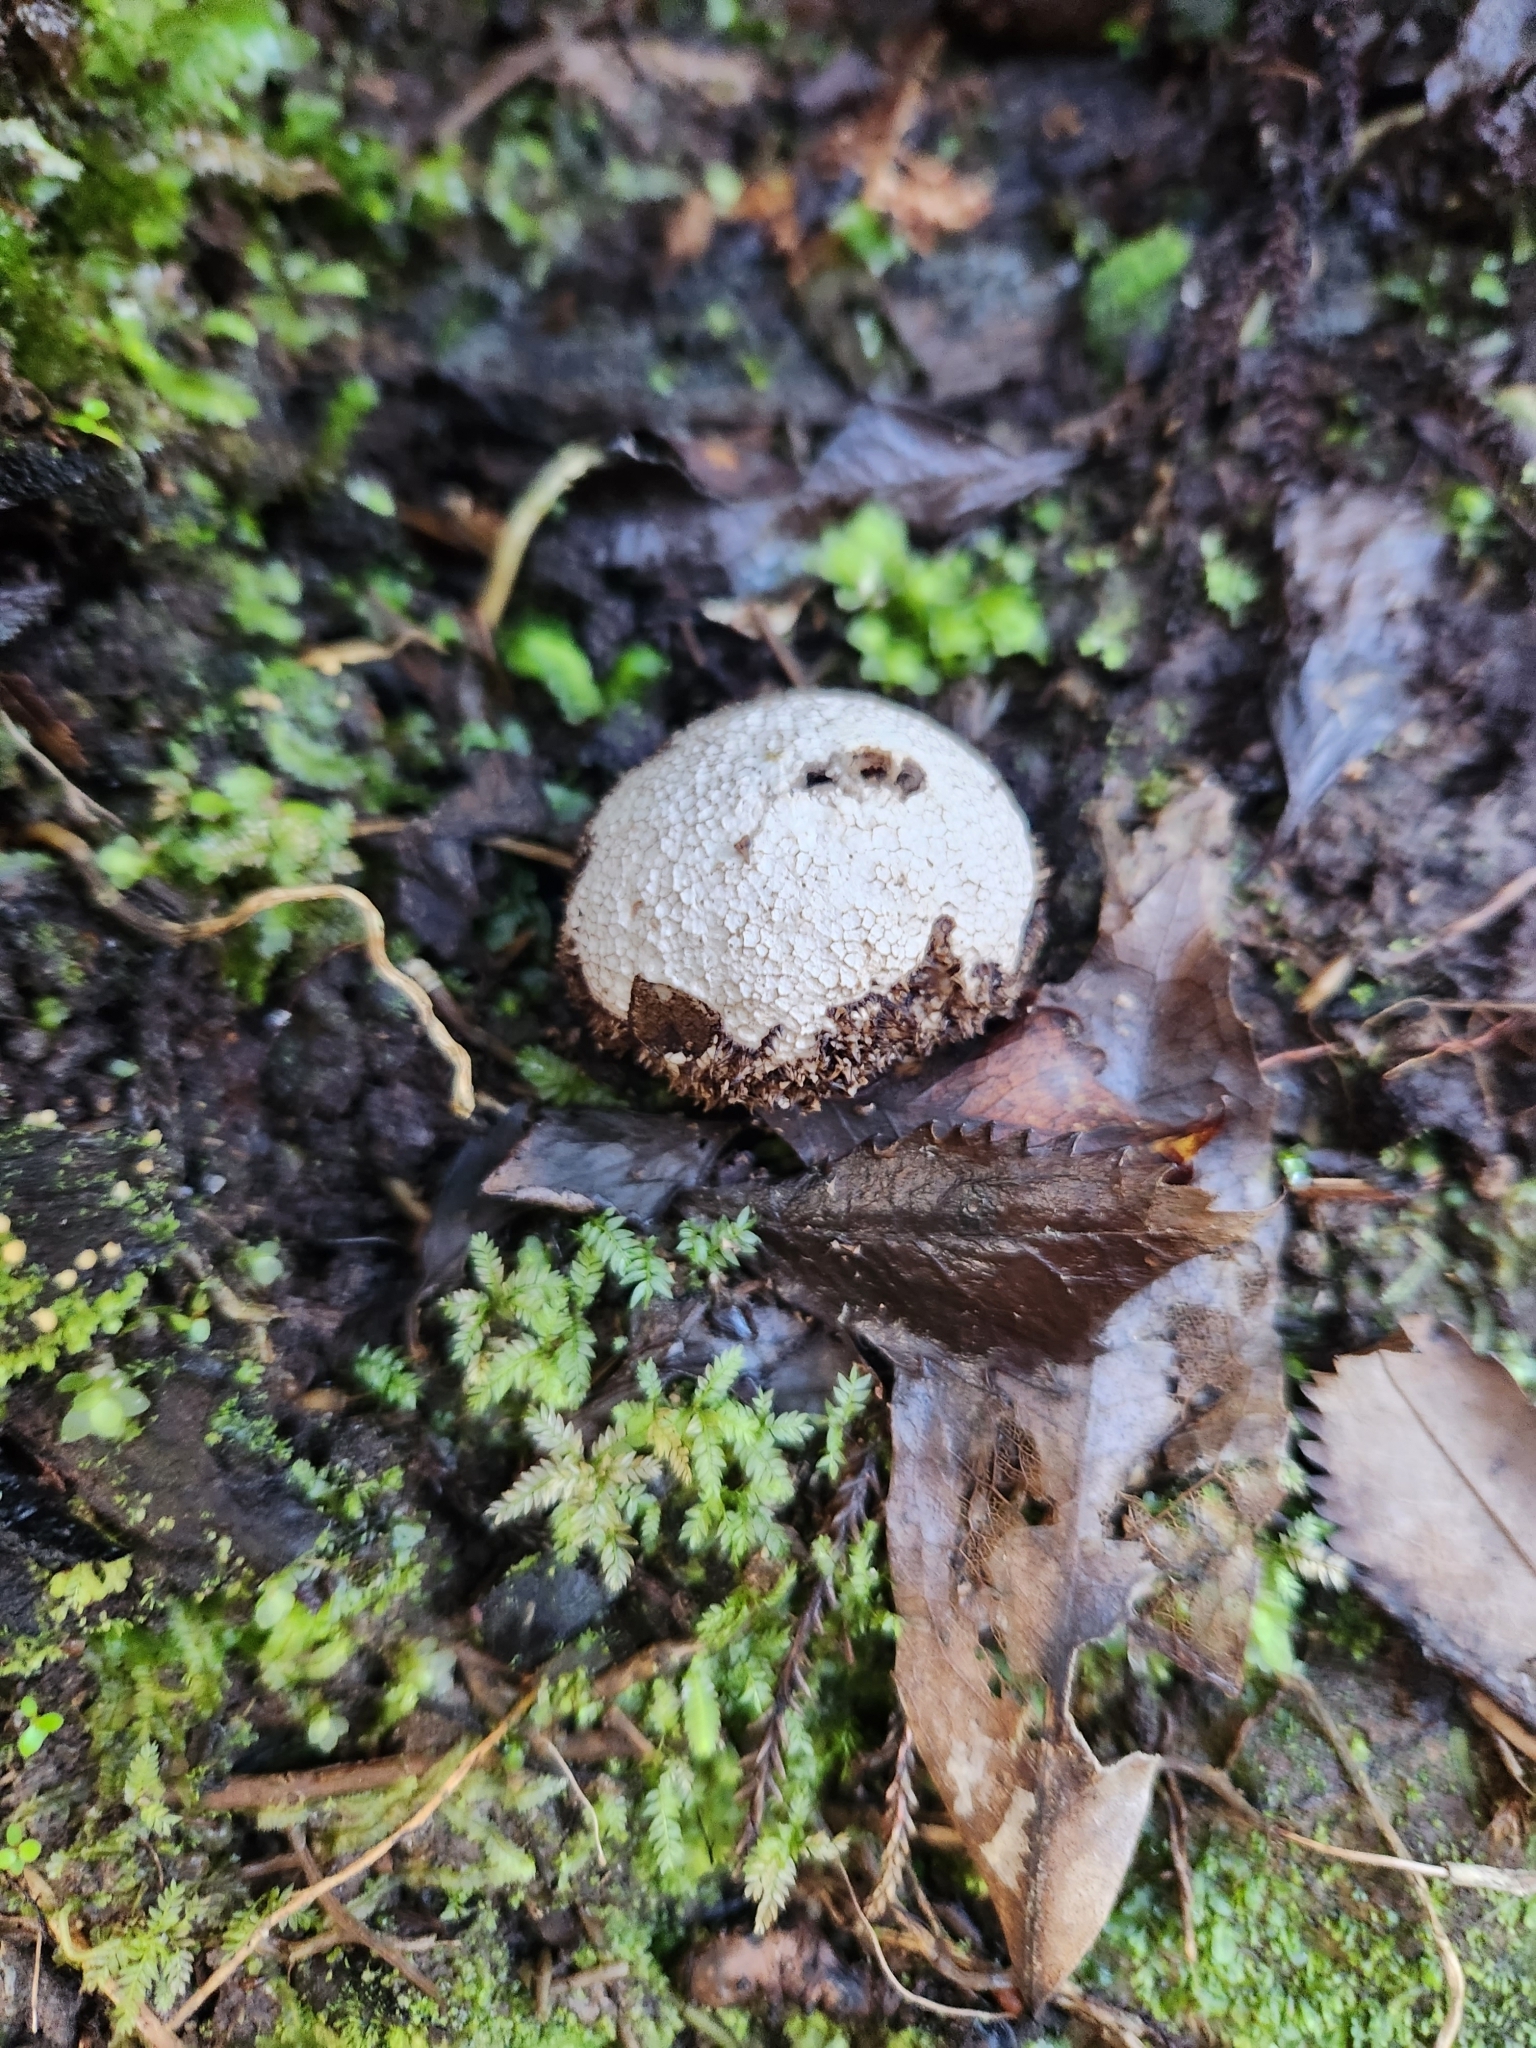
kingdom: Fungi
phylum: Basidiomycota
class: Agaricomycetes
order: Agaricales
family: Lycoperdaceae
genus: Lycoperdon
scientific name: Lycoperdon compactum
